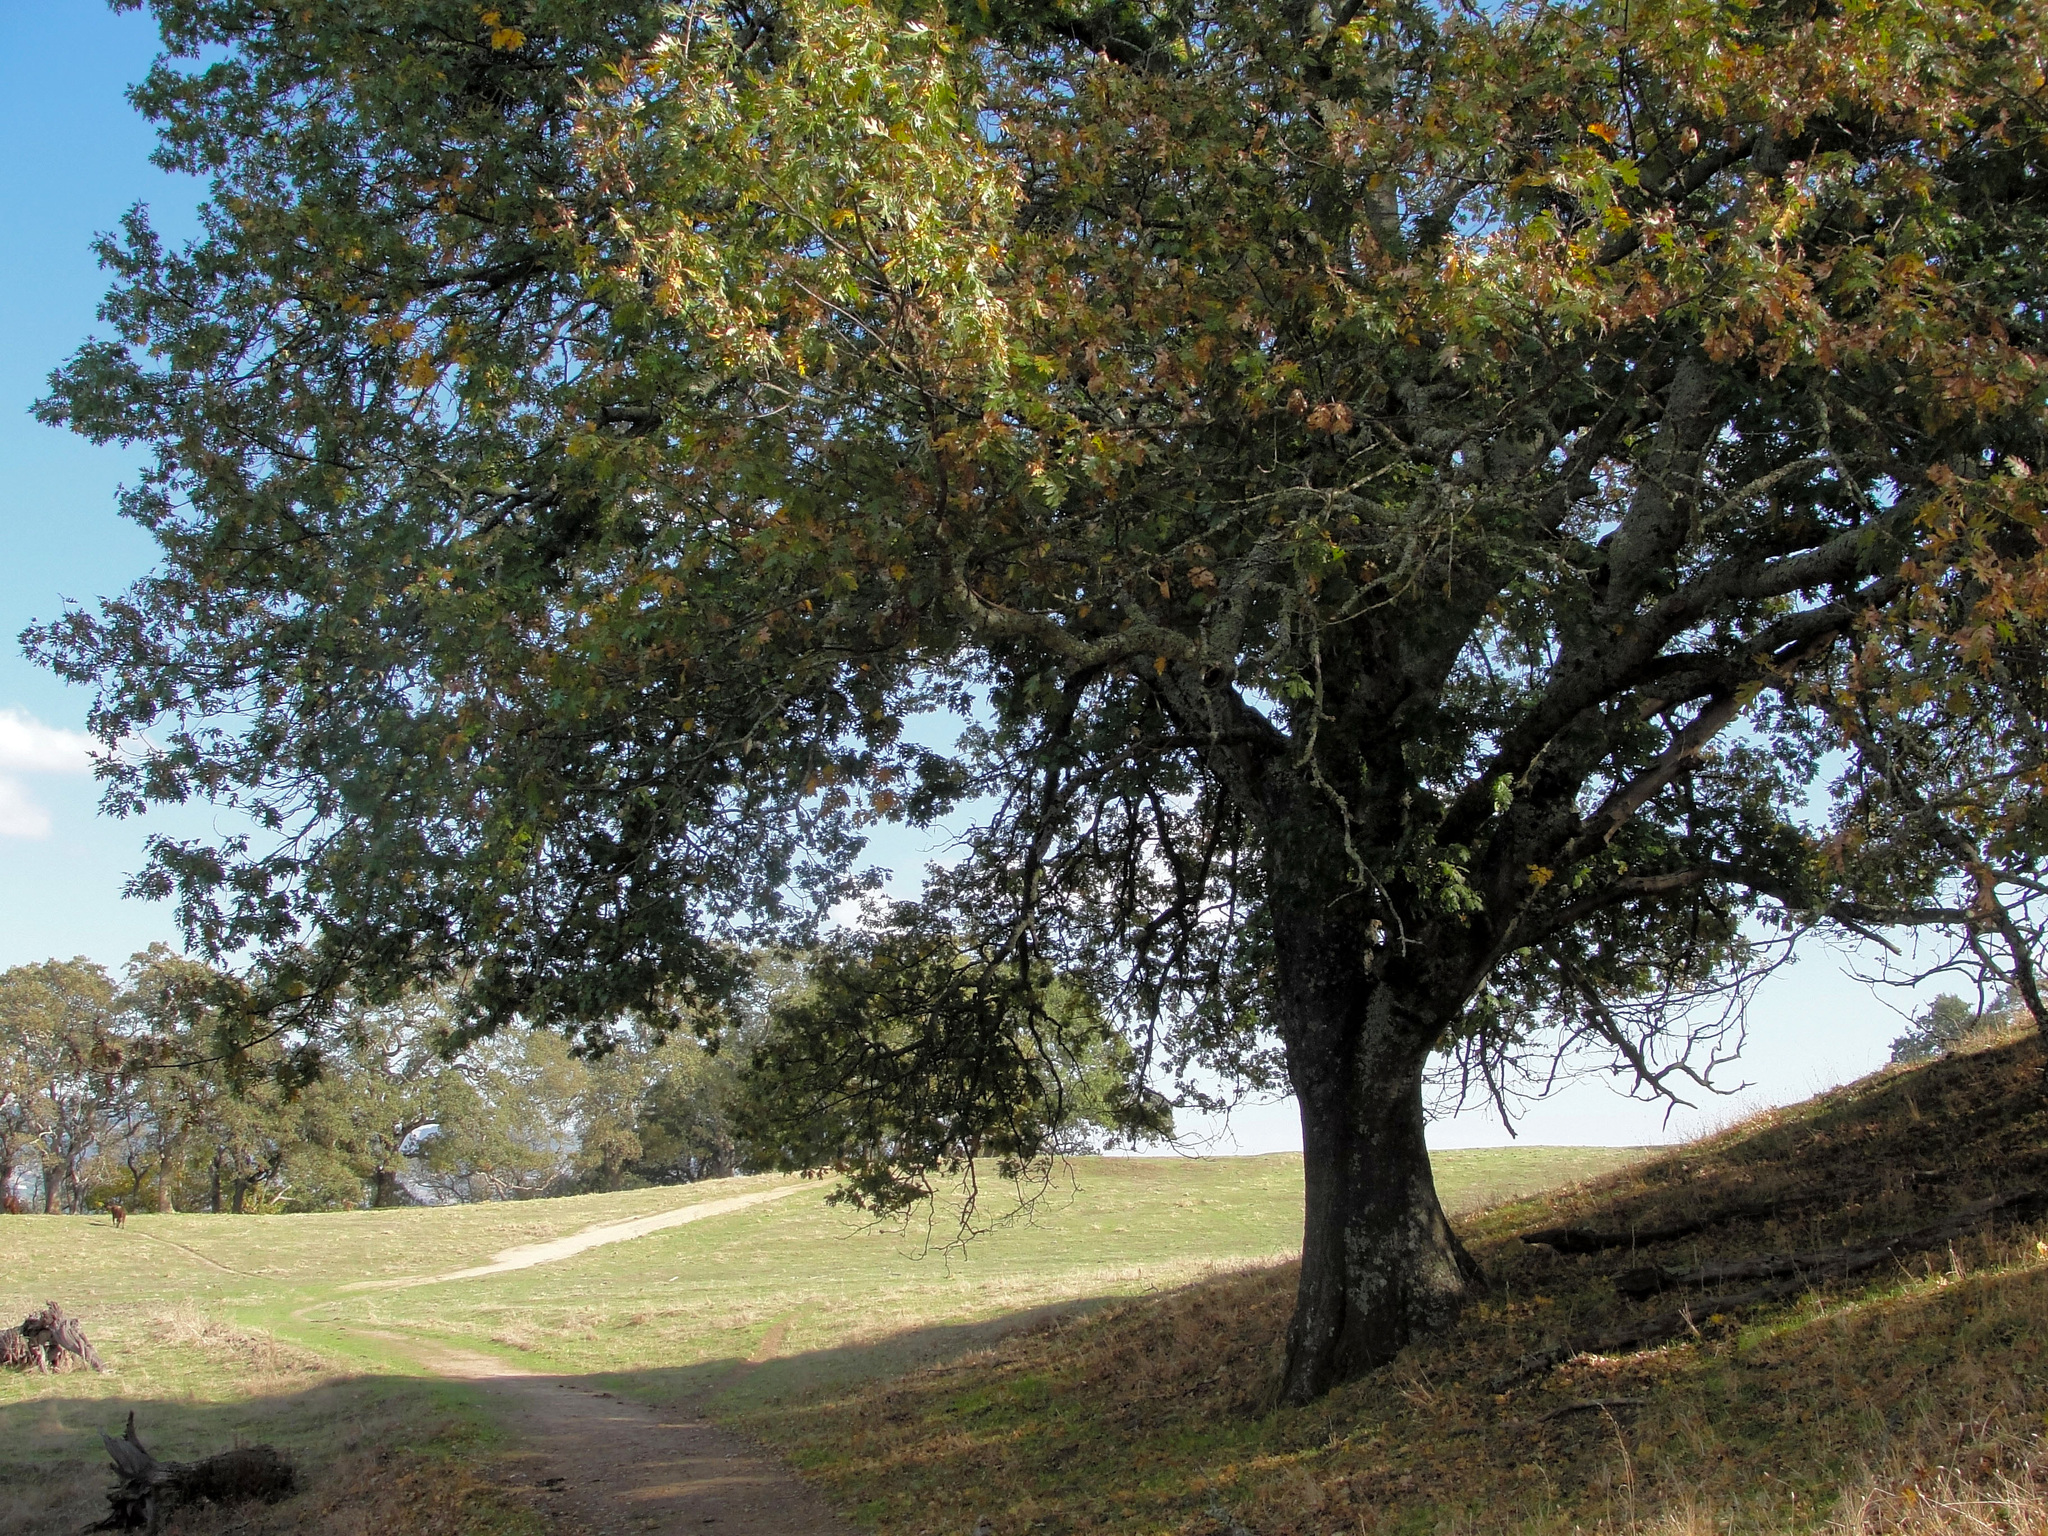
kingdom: Plantae
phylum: Tracheophyta
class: Magnoliopsida
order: Fagales
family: Fagaceae
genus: Quercus
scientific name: Quercus kelloggii
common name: California black oak
